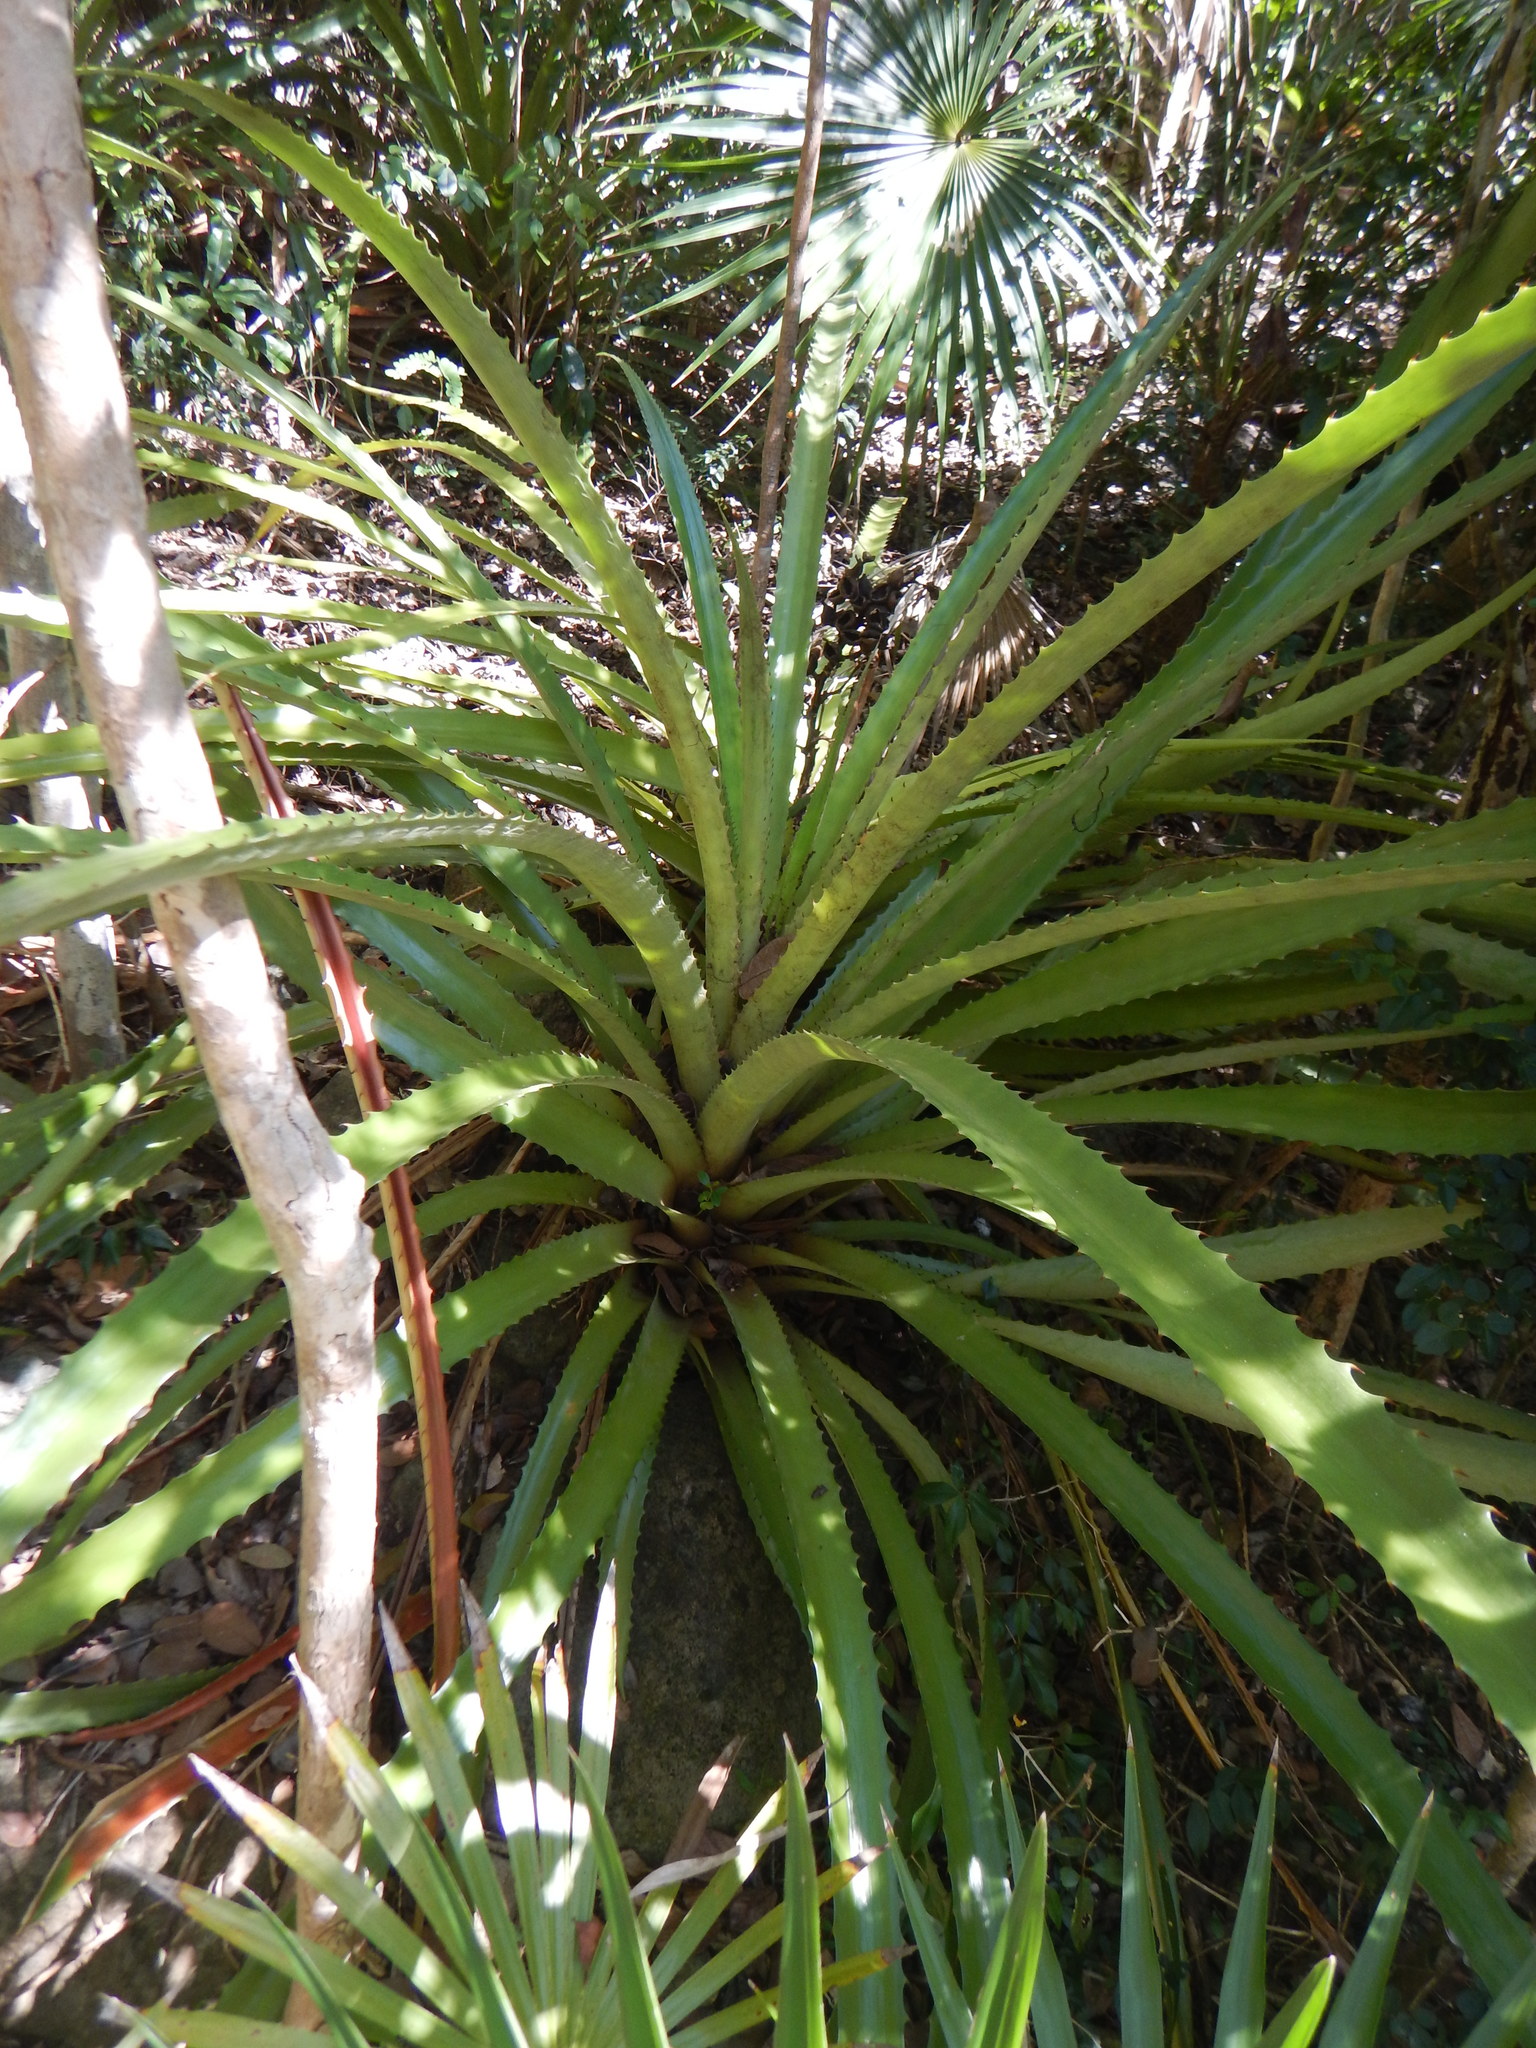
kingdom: Plantae
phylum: Tracheophyta
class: Liliopsida
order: Poales
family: Bromeliaceae
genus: Bromelia
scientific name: Bromelia pinguin
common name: Pinguin
